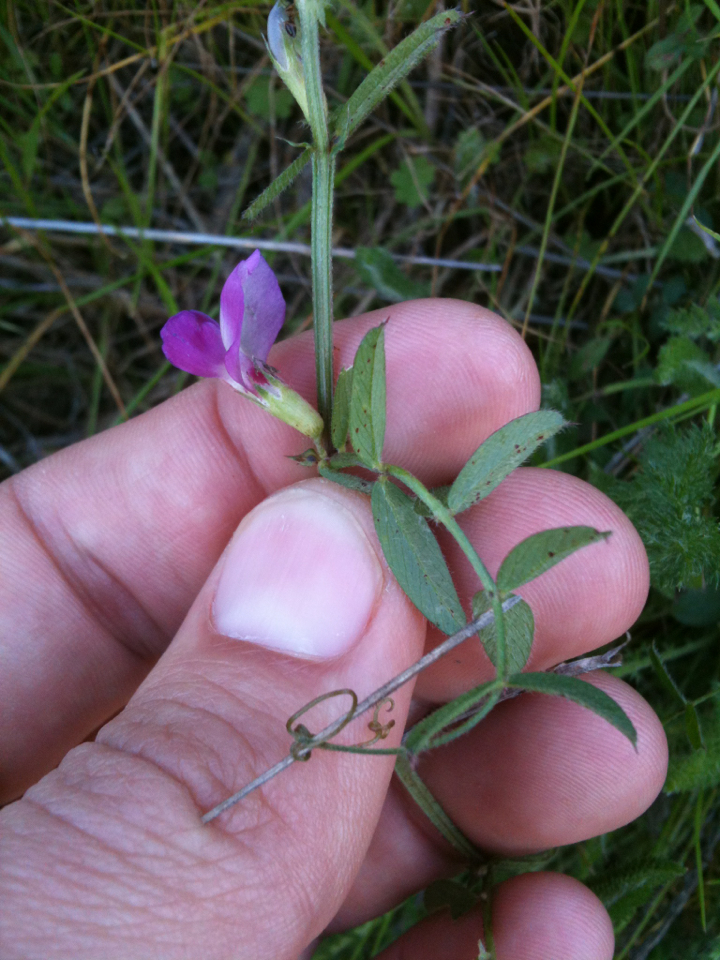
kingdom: Plantae
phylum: Tracheophyta
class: Magnoliopsida
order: Fabales
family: Fabaceae
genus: Vicia
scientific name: Vicia sativa
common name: Garden vetch
